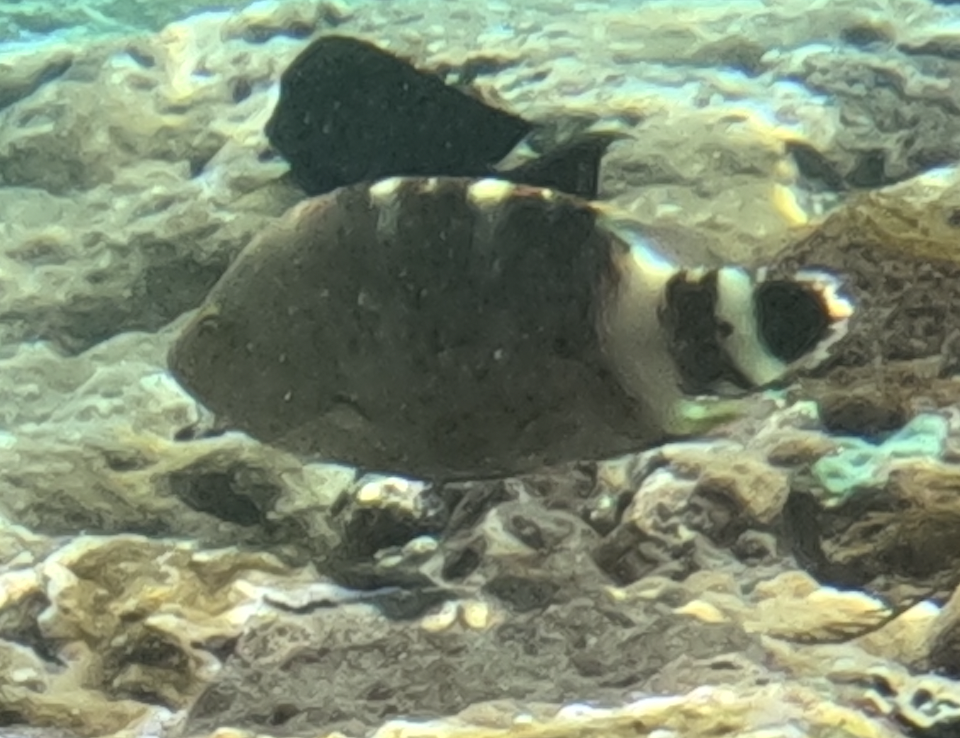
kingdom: Animalia
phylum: Chordata
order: Perciformes
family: Labridae
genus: Cheilinus
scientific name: Cheilinus trilobatus
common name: Tripletail maori wrasse
